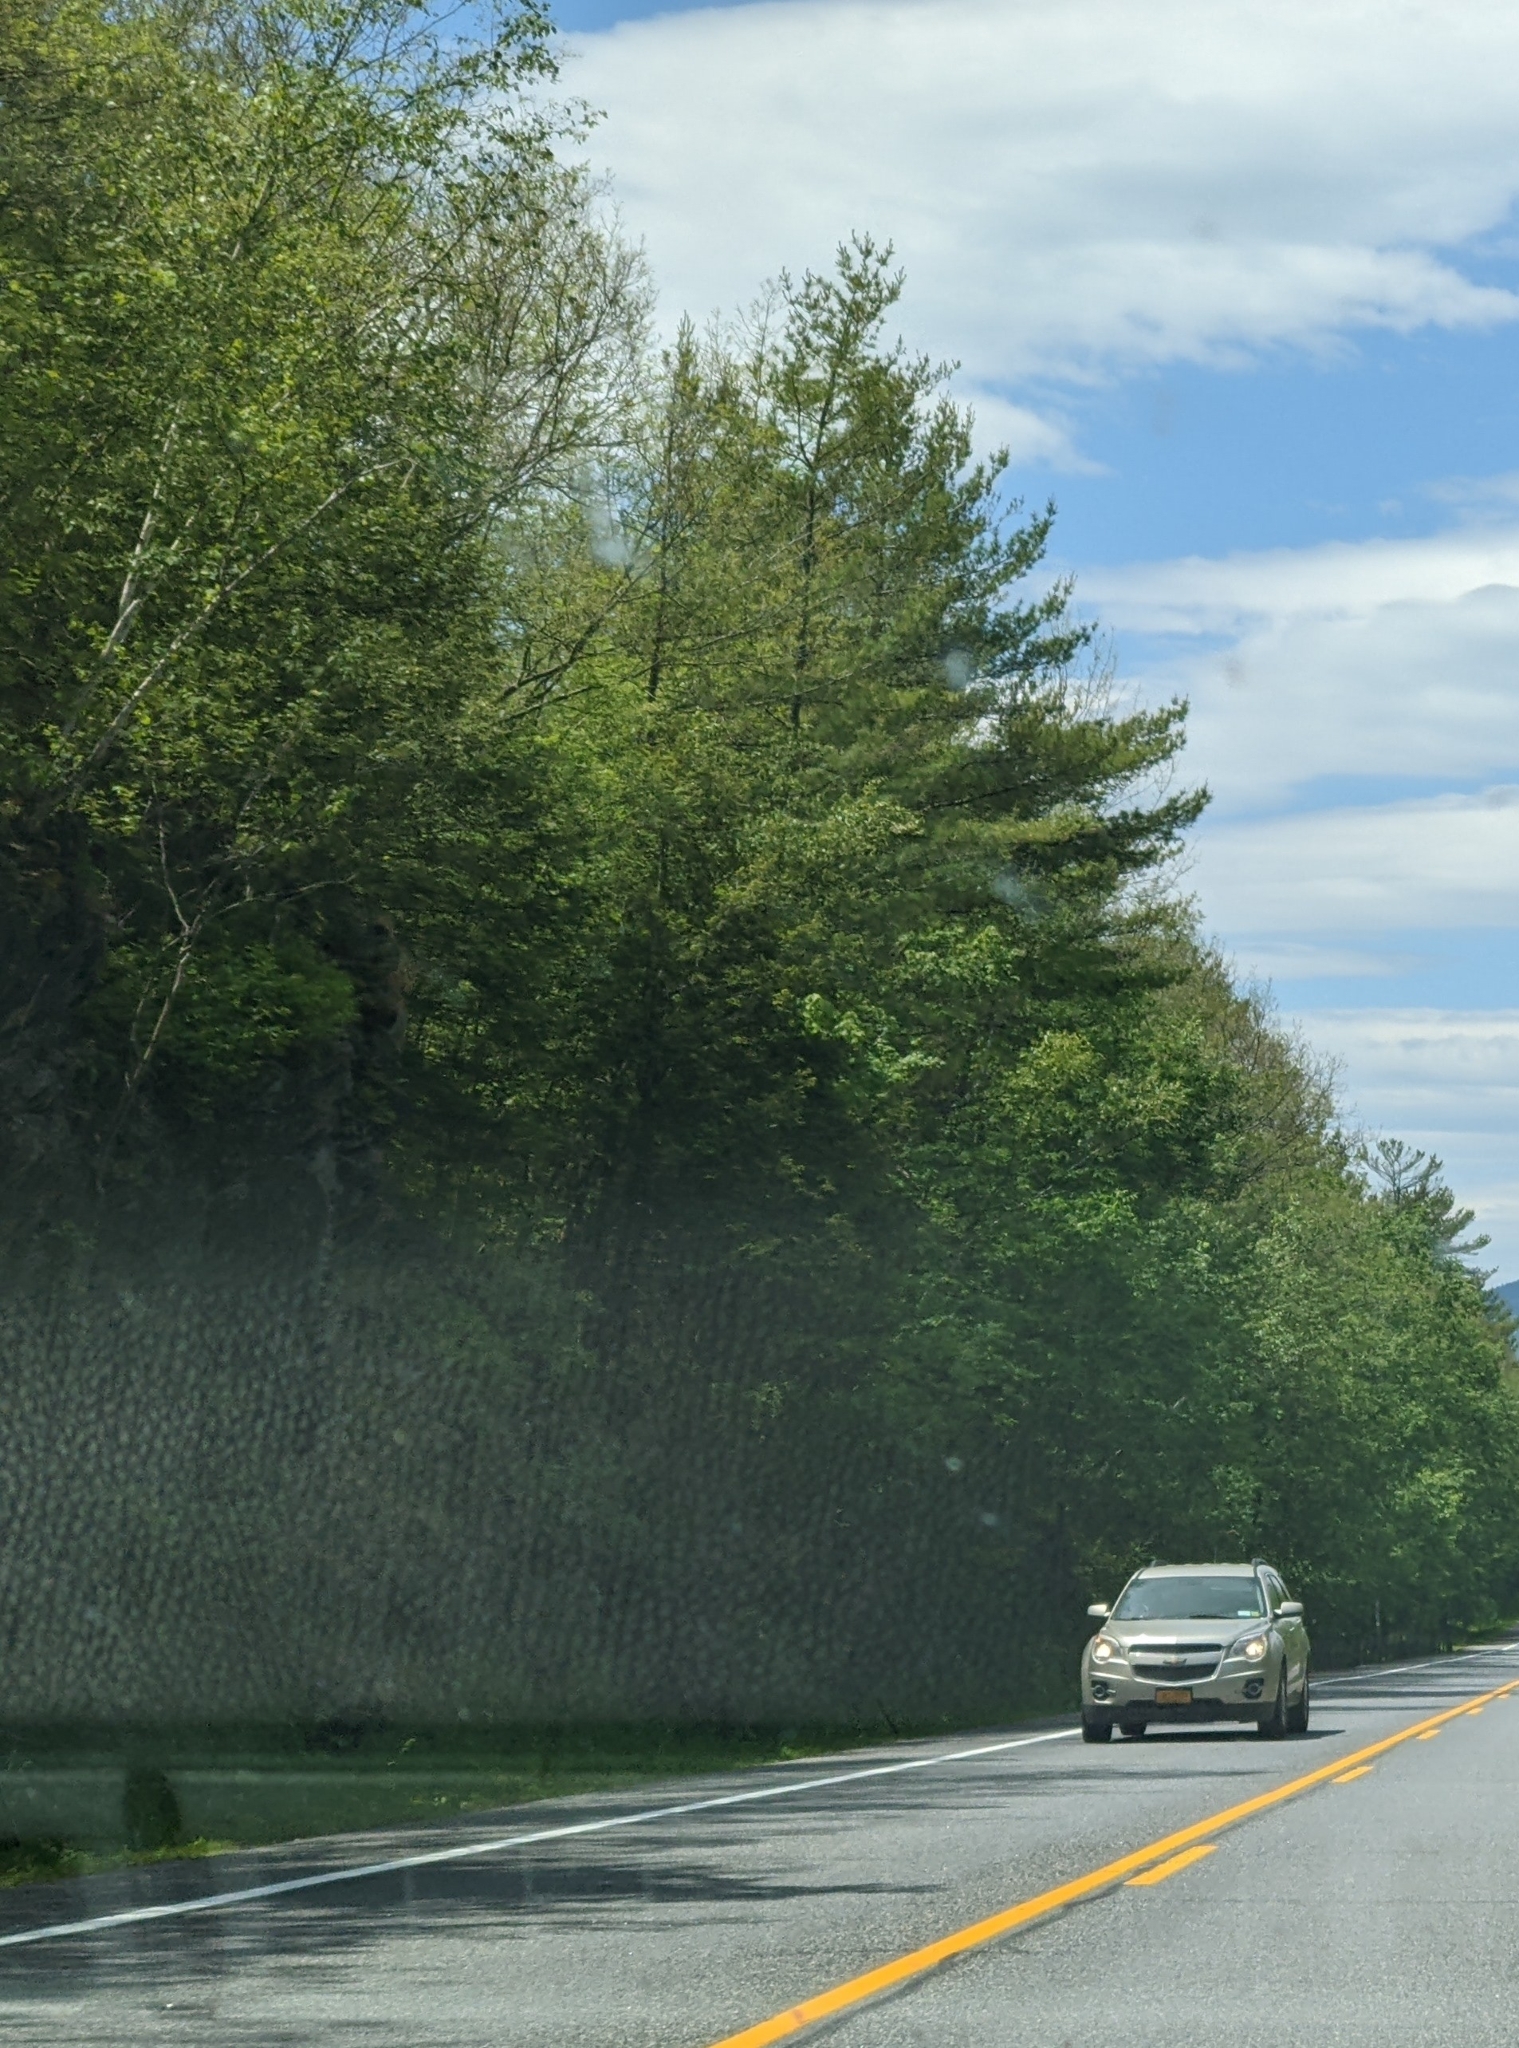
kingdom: Plantae
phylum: Tracheophyta
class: Pinopsida
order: Pinales
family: Pinaceae
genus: Pinus
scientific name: Pinus strobus
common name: Weymouth pine
